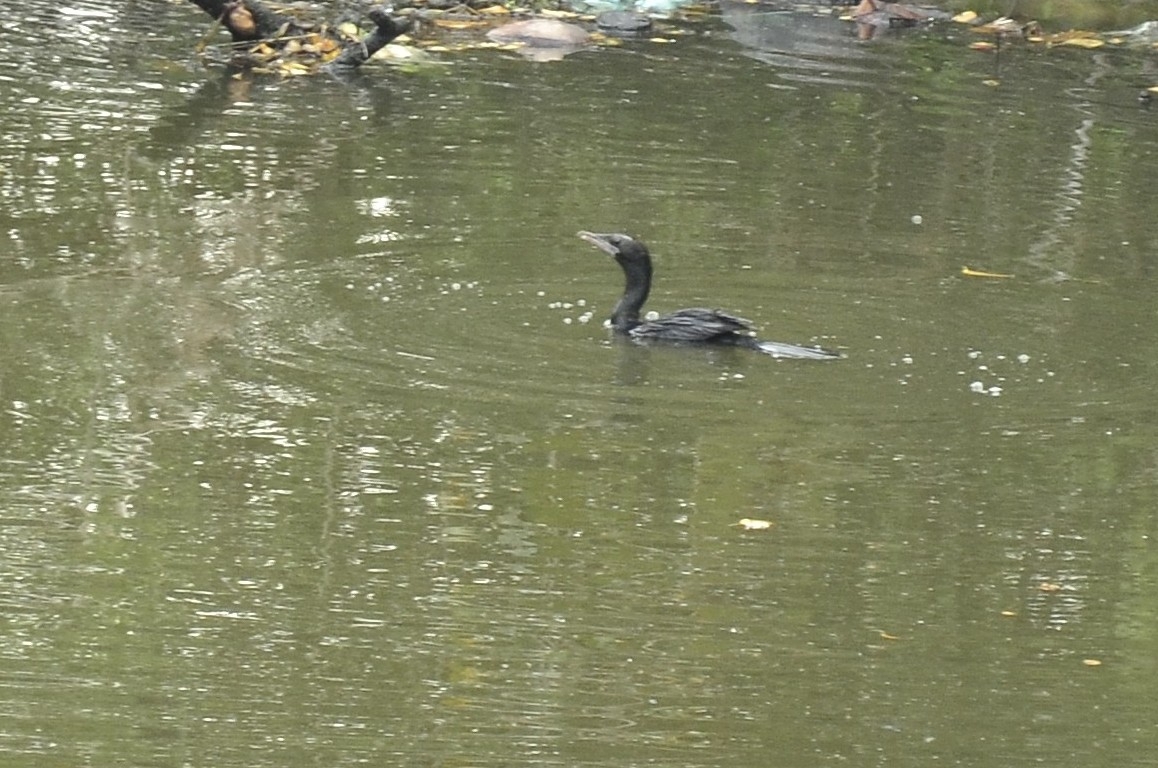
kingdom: Animalia
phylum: Chordata
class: Aves
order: Suliformes
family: Phalacrocoracidae
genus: Microcarbo
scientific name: Microcarbo niger
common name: Little cormorant
